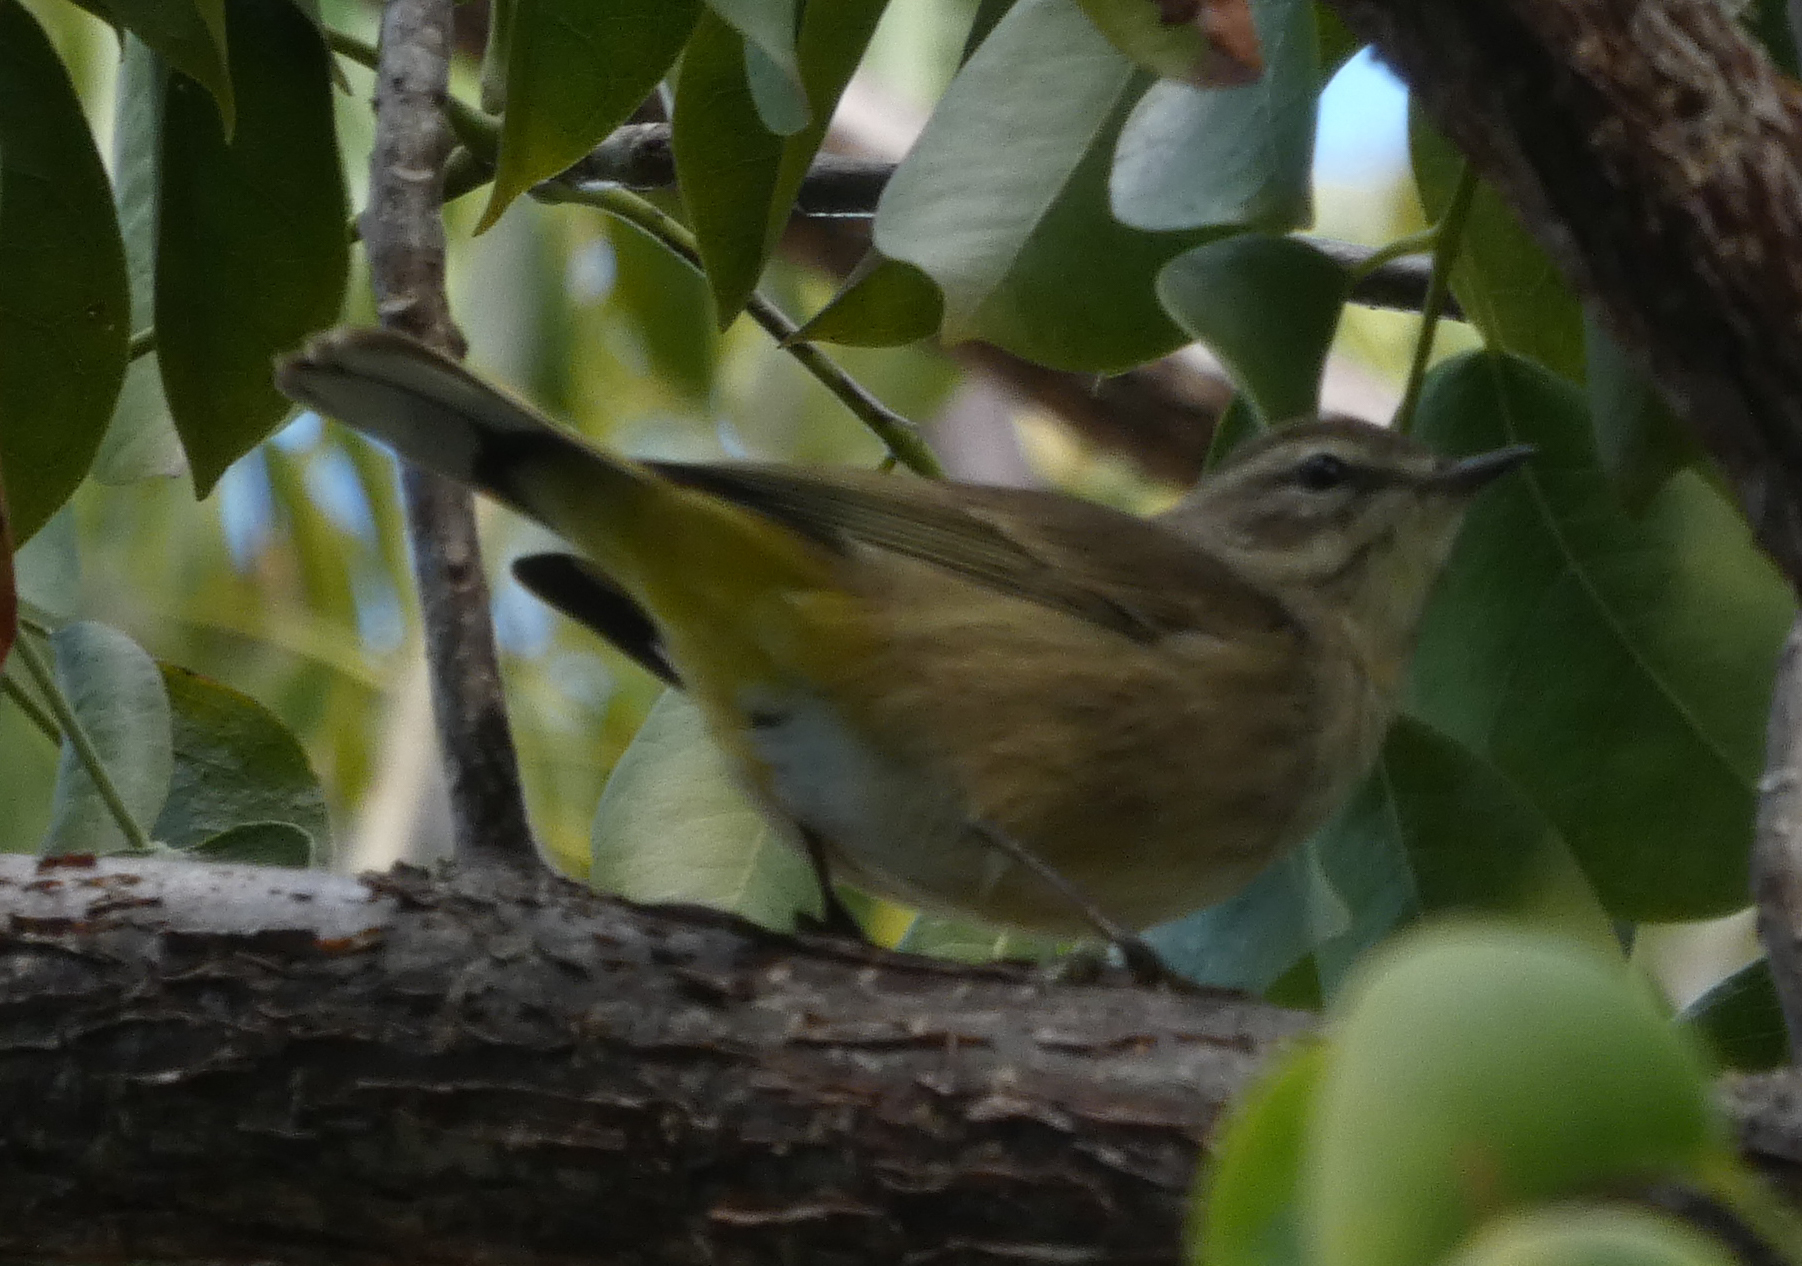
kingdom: Animalia
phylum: Chordata
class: Aves
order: Passeriformes
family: Parulidae
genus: Setophaga
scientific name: Setophaga palmarum
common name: Palm warbler
